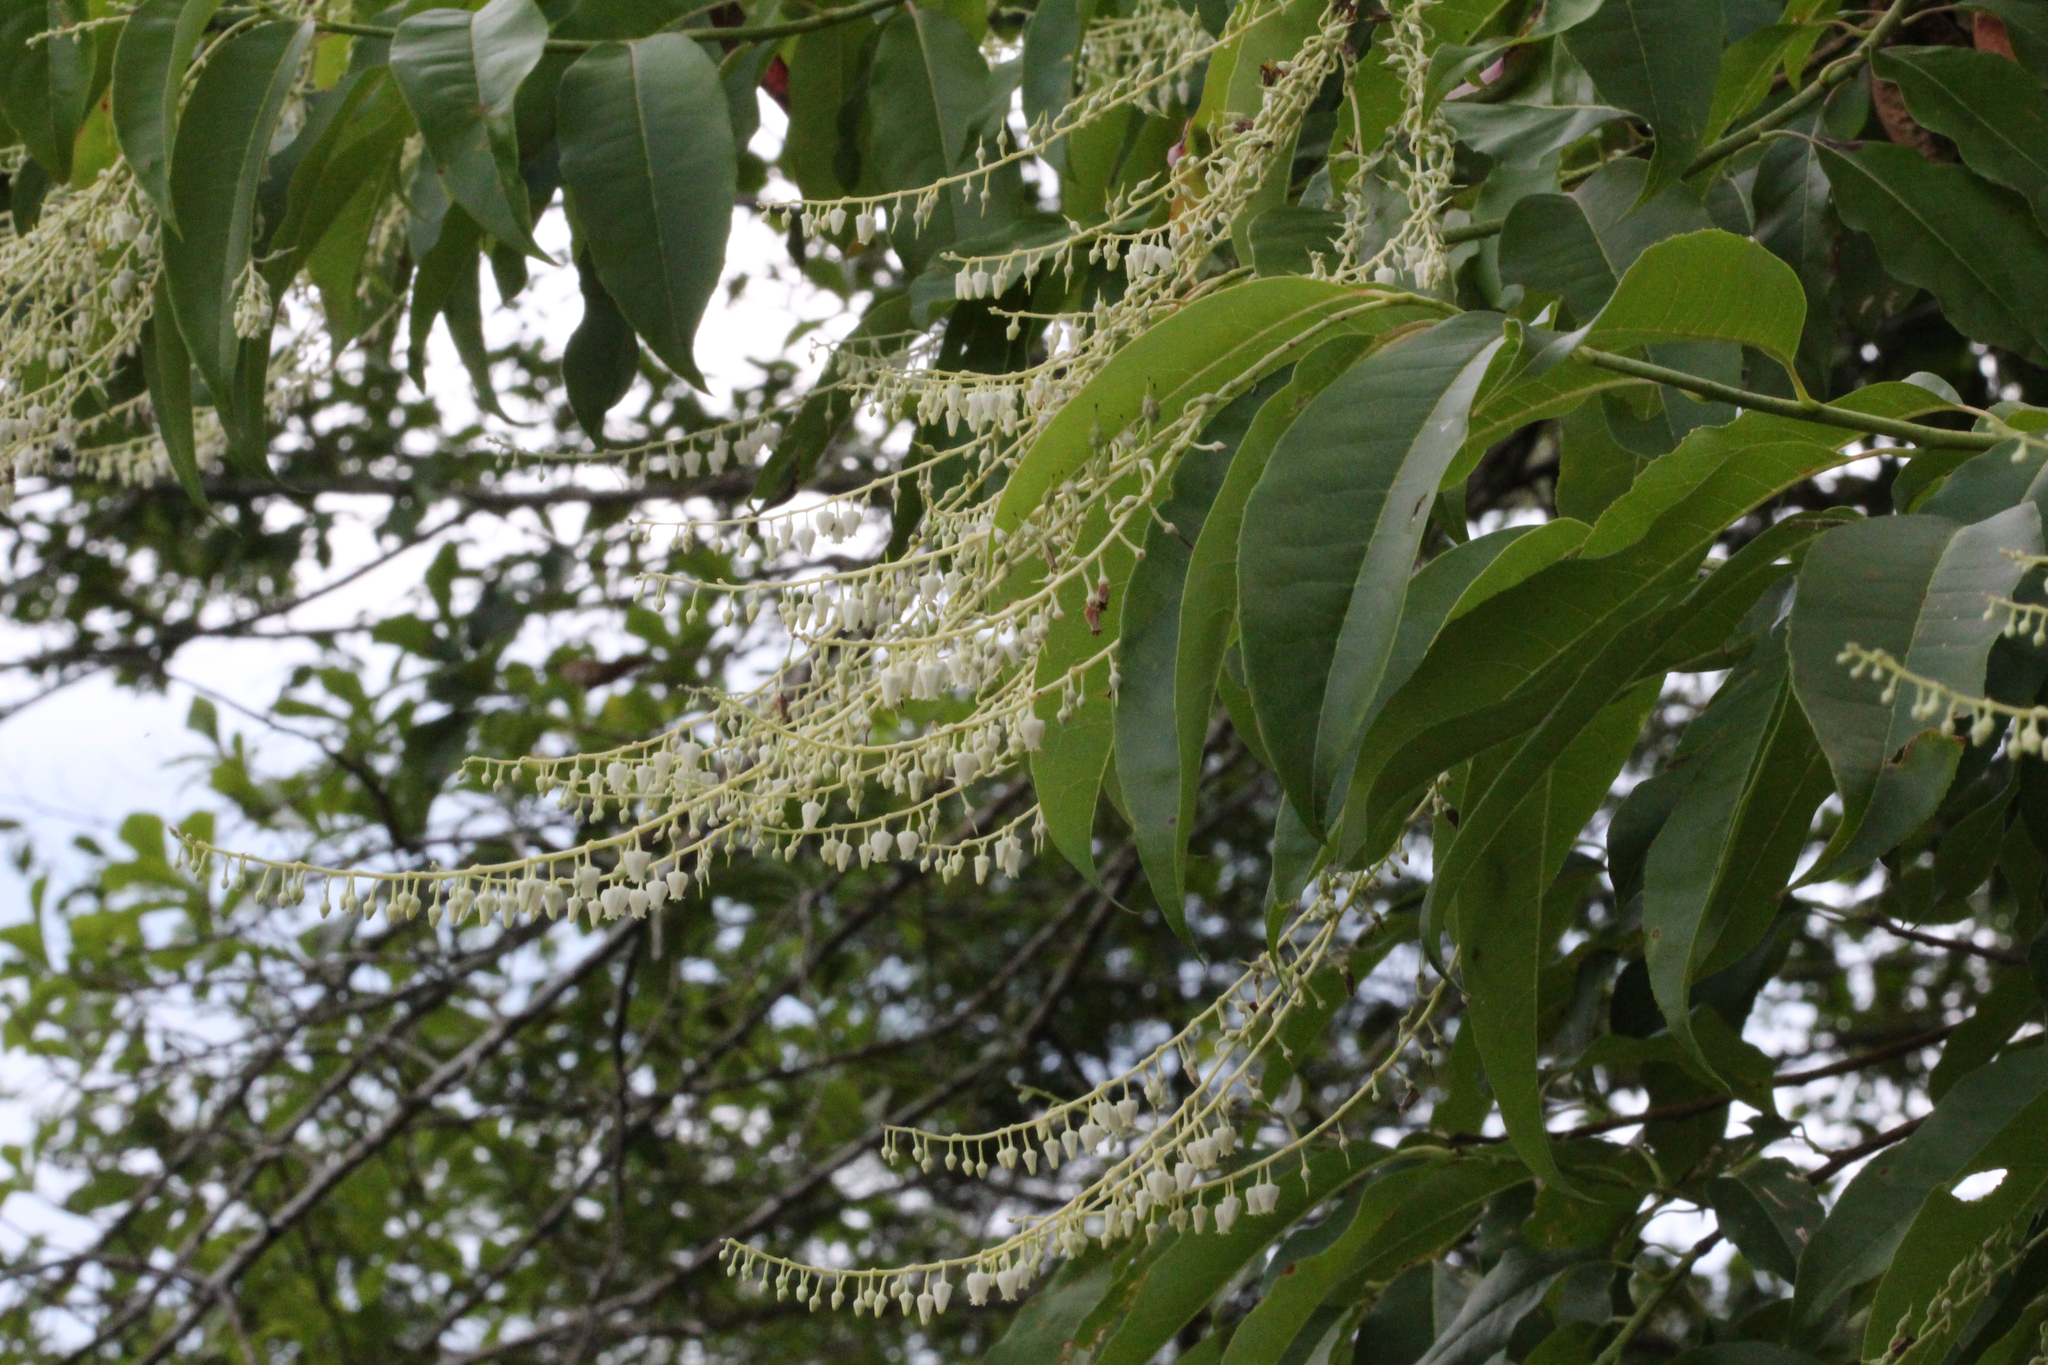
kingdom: Plantae
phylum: Tracheophyta
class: Magnoliopsida
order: Ericales
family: Ericaceae
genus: Oxydendrum
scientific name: Oxydendrum arboreum
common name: Sourwood
